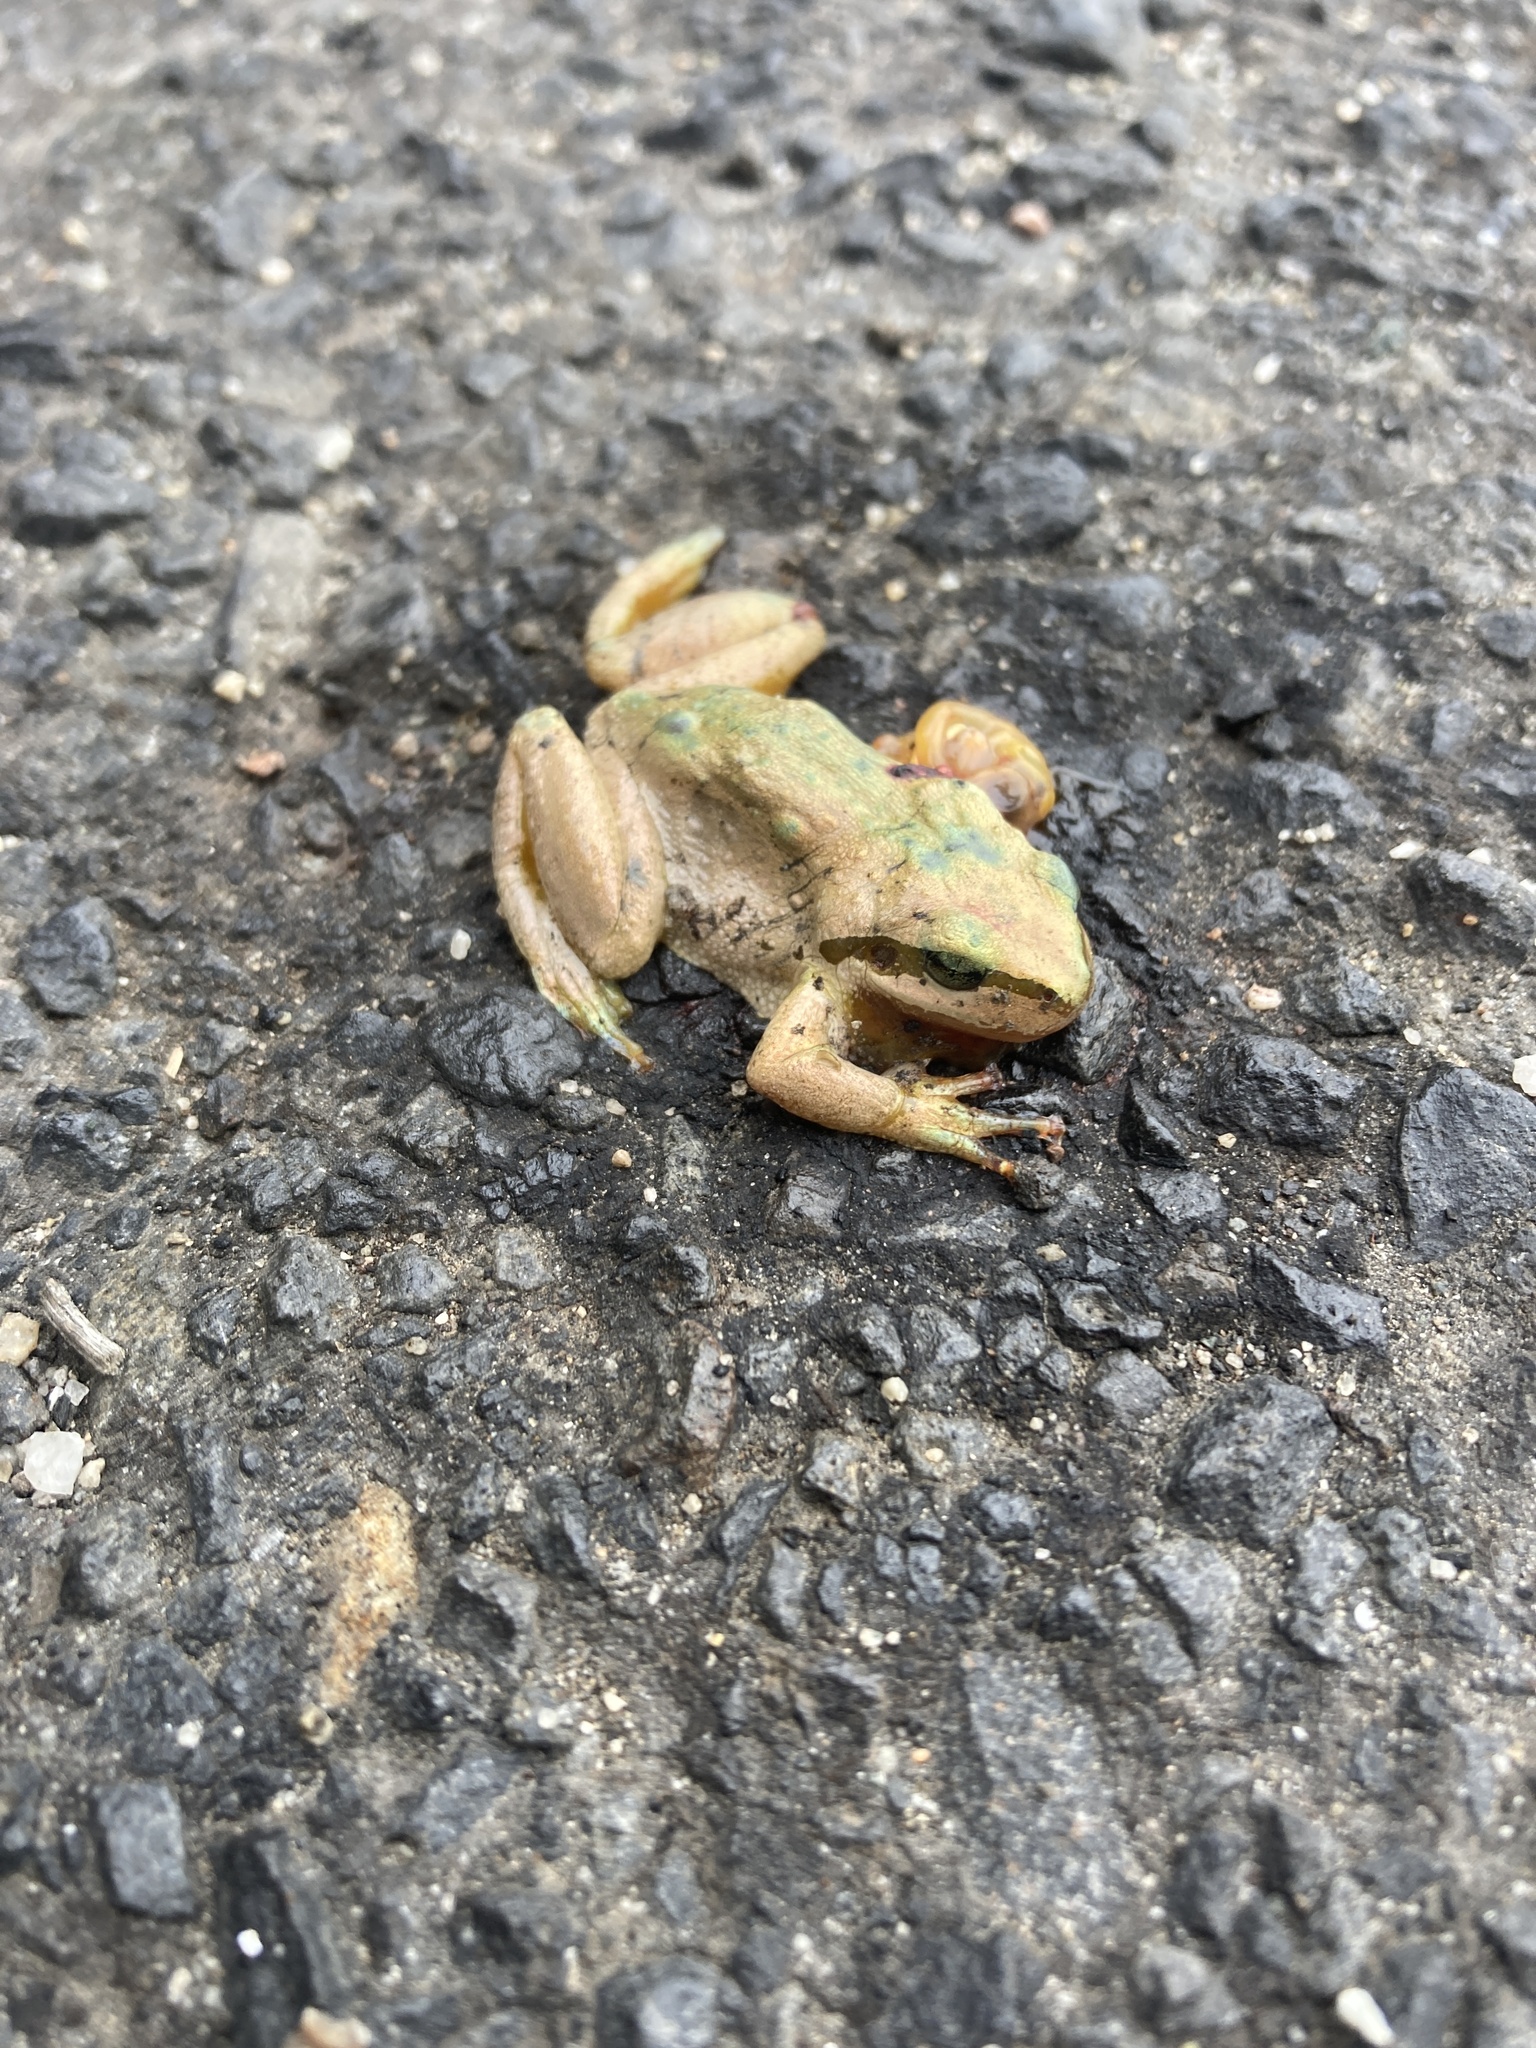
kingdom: Animalia
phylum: Chordata
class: Amphibia
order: Anura
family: Hylidae
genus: Pseudacris
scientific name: Pseudacris regilla
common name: Pacific chorus frog
